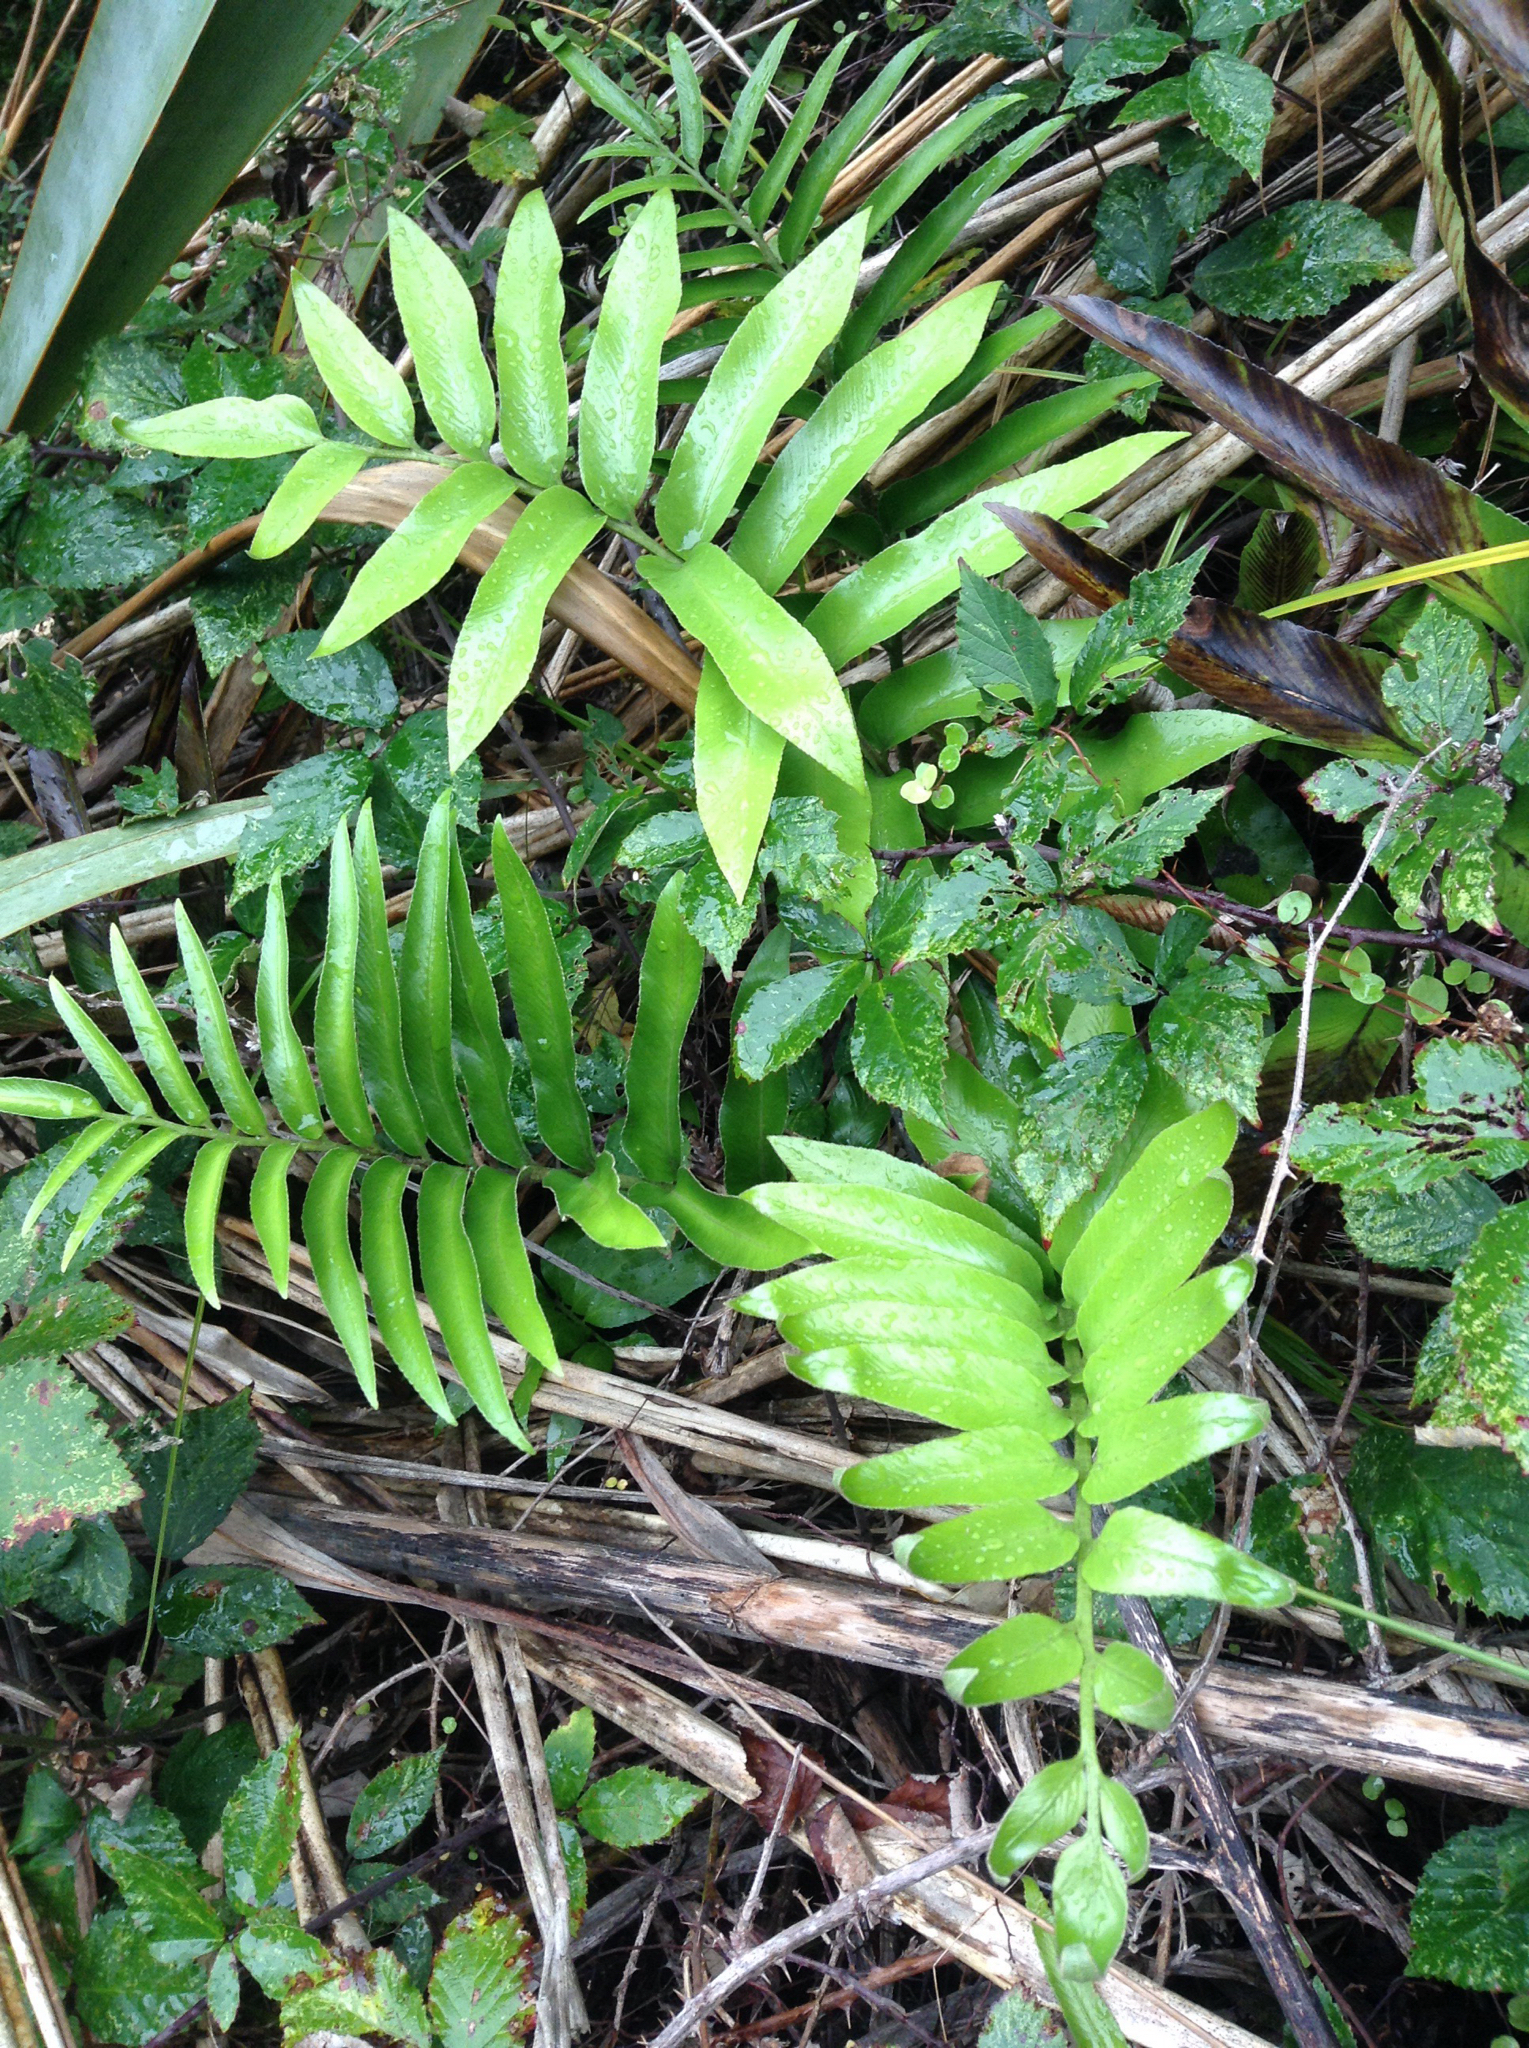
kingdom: Plantae
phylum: Tracheophyta
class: Polypodiopsida
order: Polypodiales
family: Aspleniaceae
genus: Asplenium
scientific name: Asplenium oblongifolium
